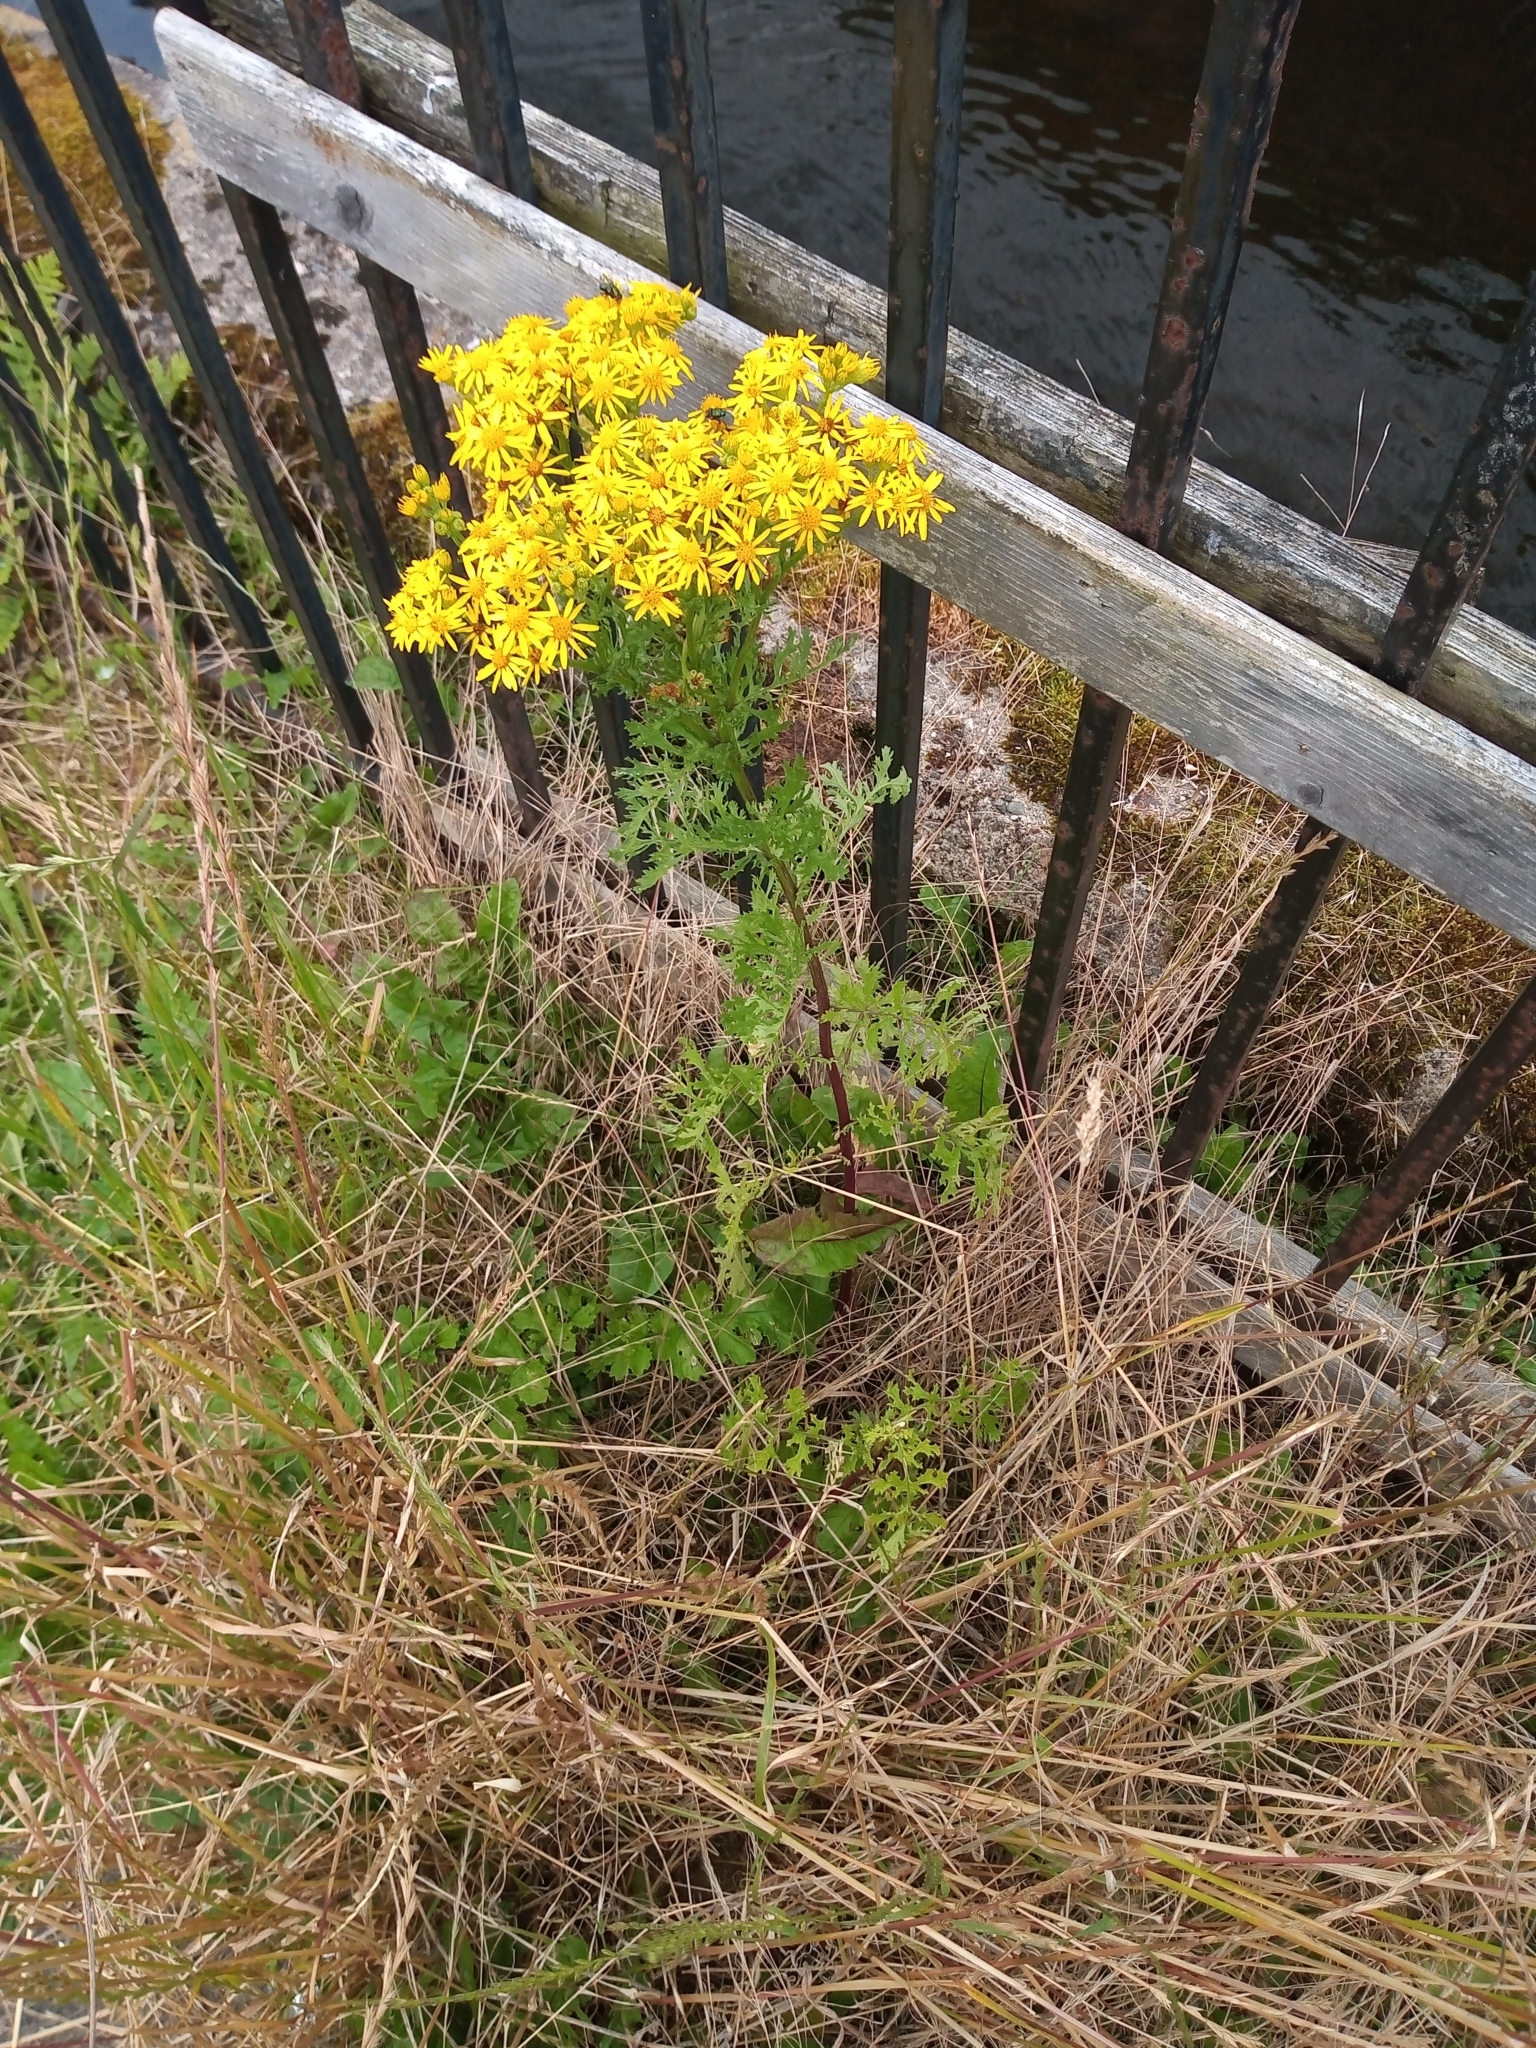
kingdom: Plantae
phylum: Tracheophyta
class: Magnoliopsida
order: Asterales
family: Asteraceae
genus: Jacobaea
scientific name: Jacobaea vulgaris
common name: Stinking willie
